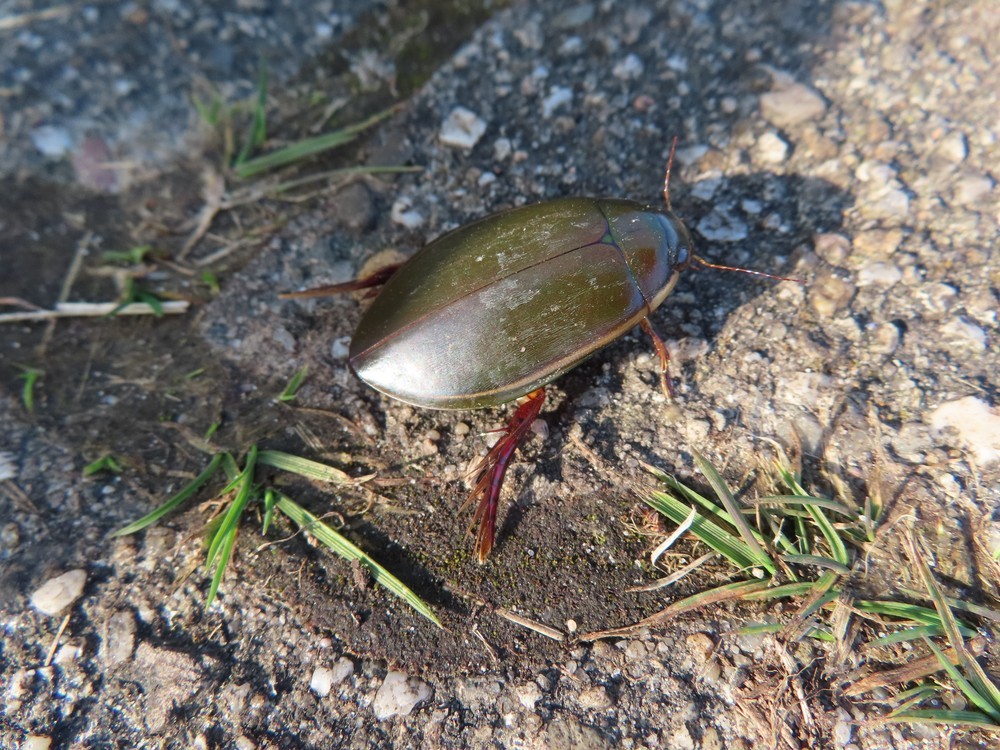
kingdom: Animalia
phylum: Arthropoda
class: Insecta
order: Coleoptera
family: Dytiscidae
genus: Cybister
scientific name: Cybister lateralimarginalis
